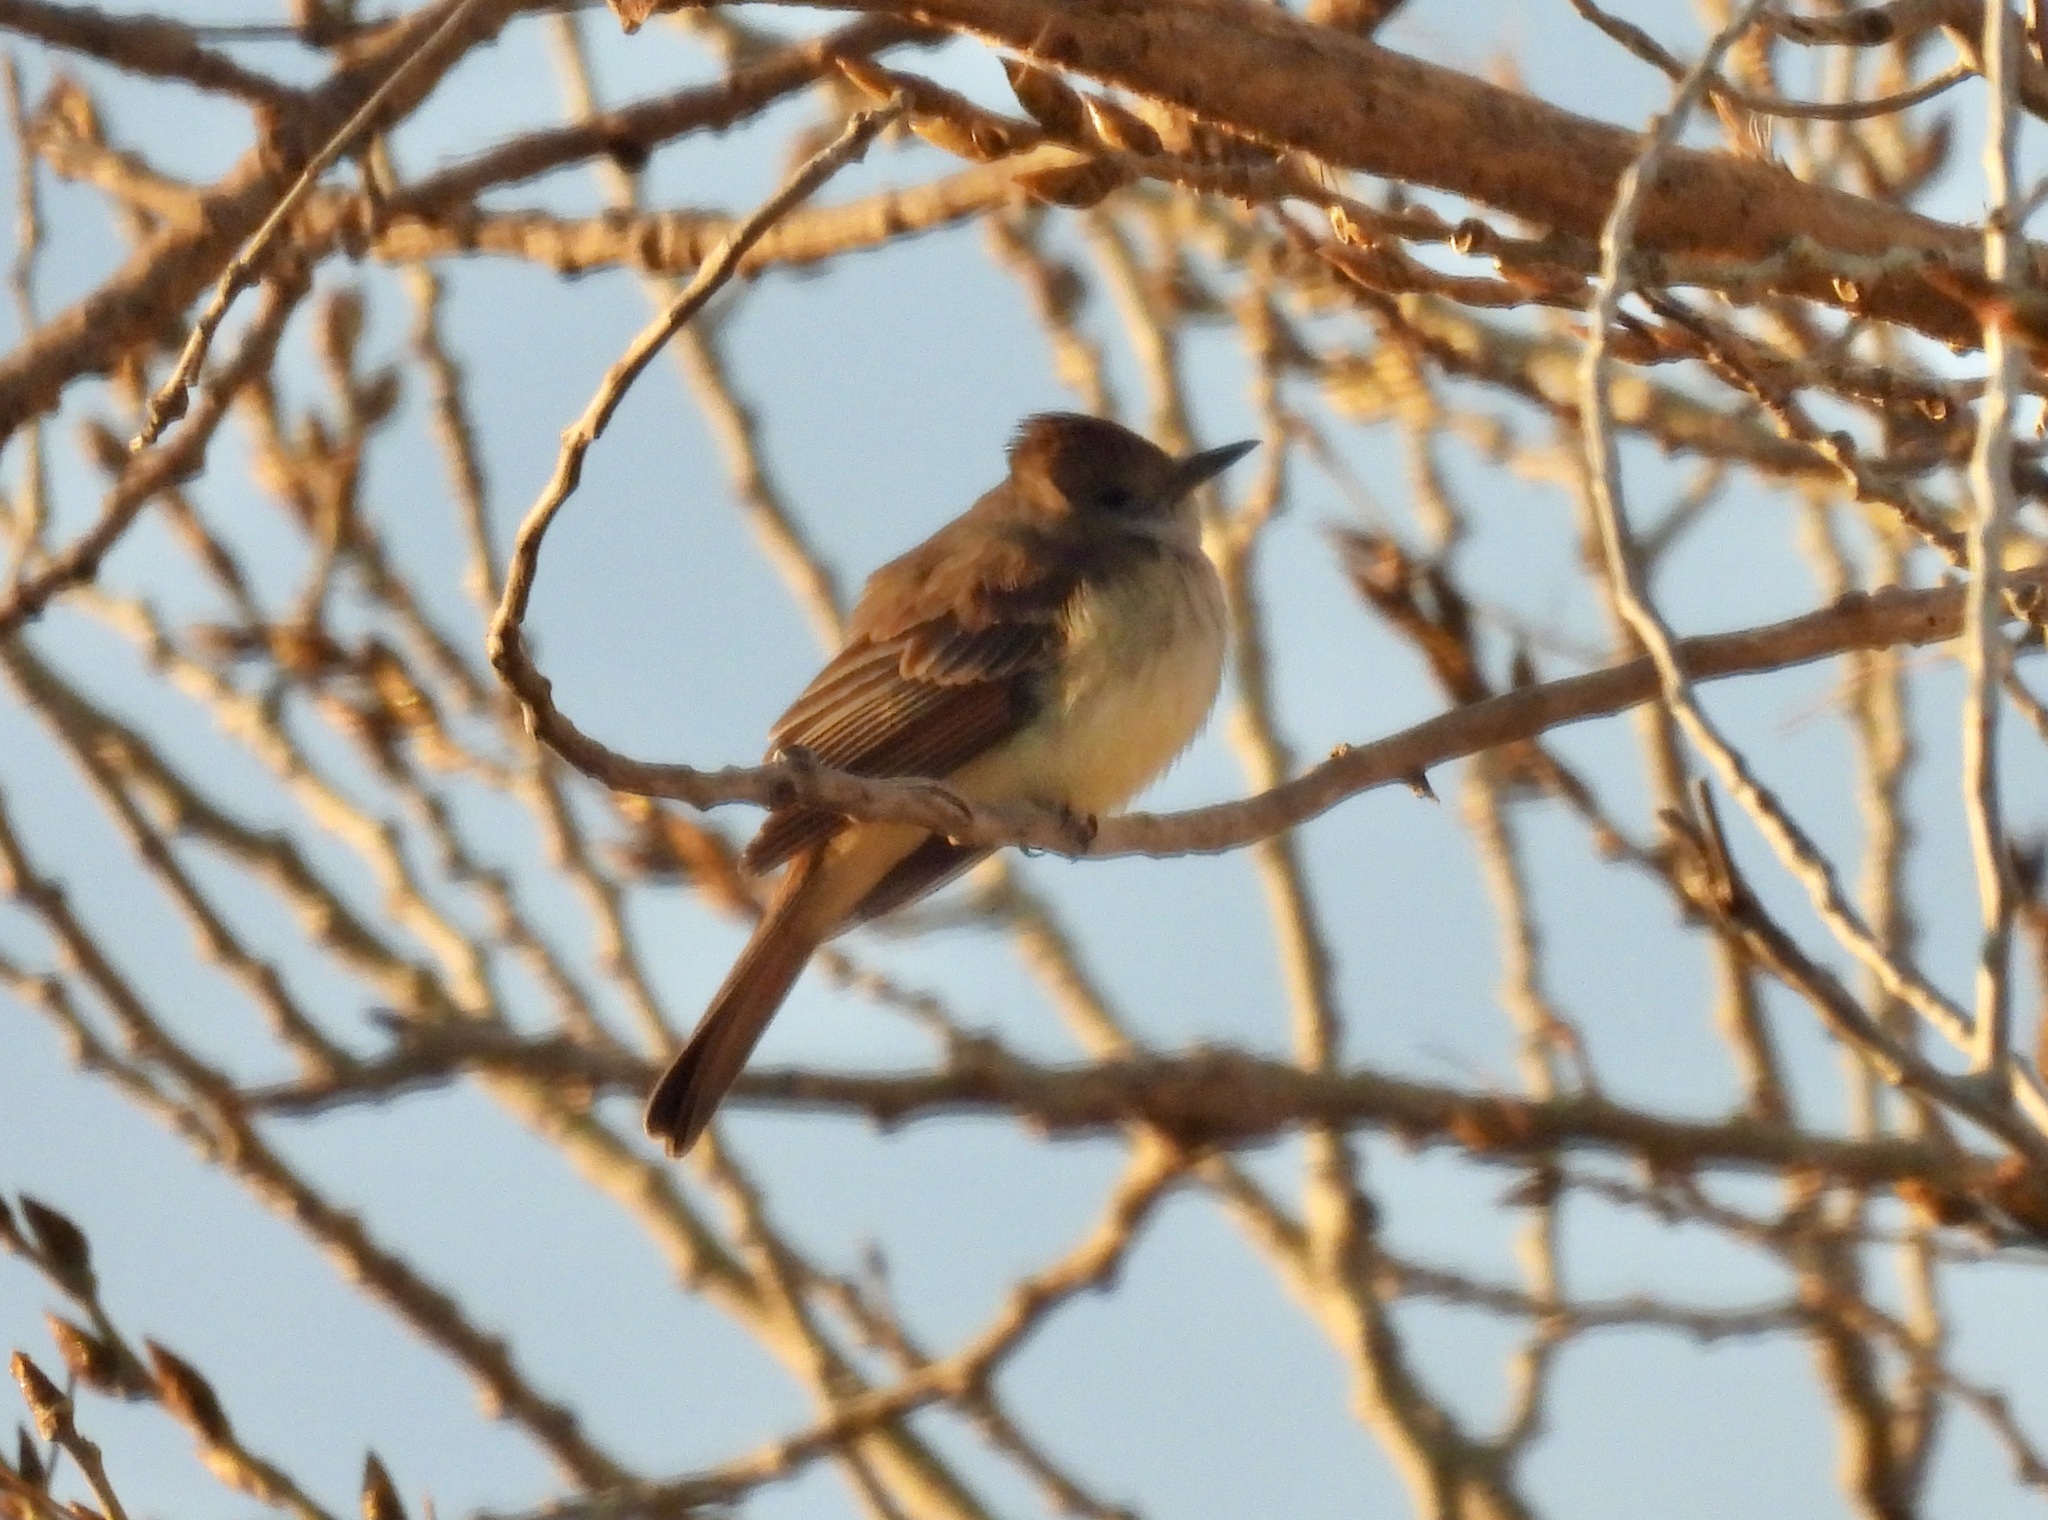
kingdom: Animalia
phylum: Chordata
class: Aves
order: Passeriformes
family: Tyrannidae
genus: Myiarchus
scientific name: Myiarchus cinerascens
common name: Ash-throated flycatcher
